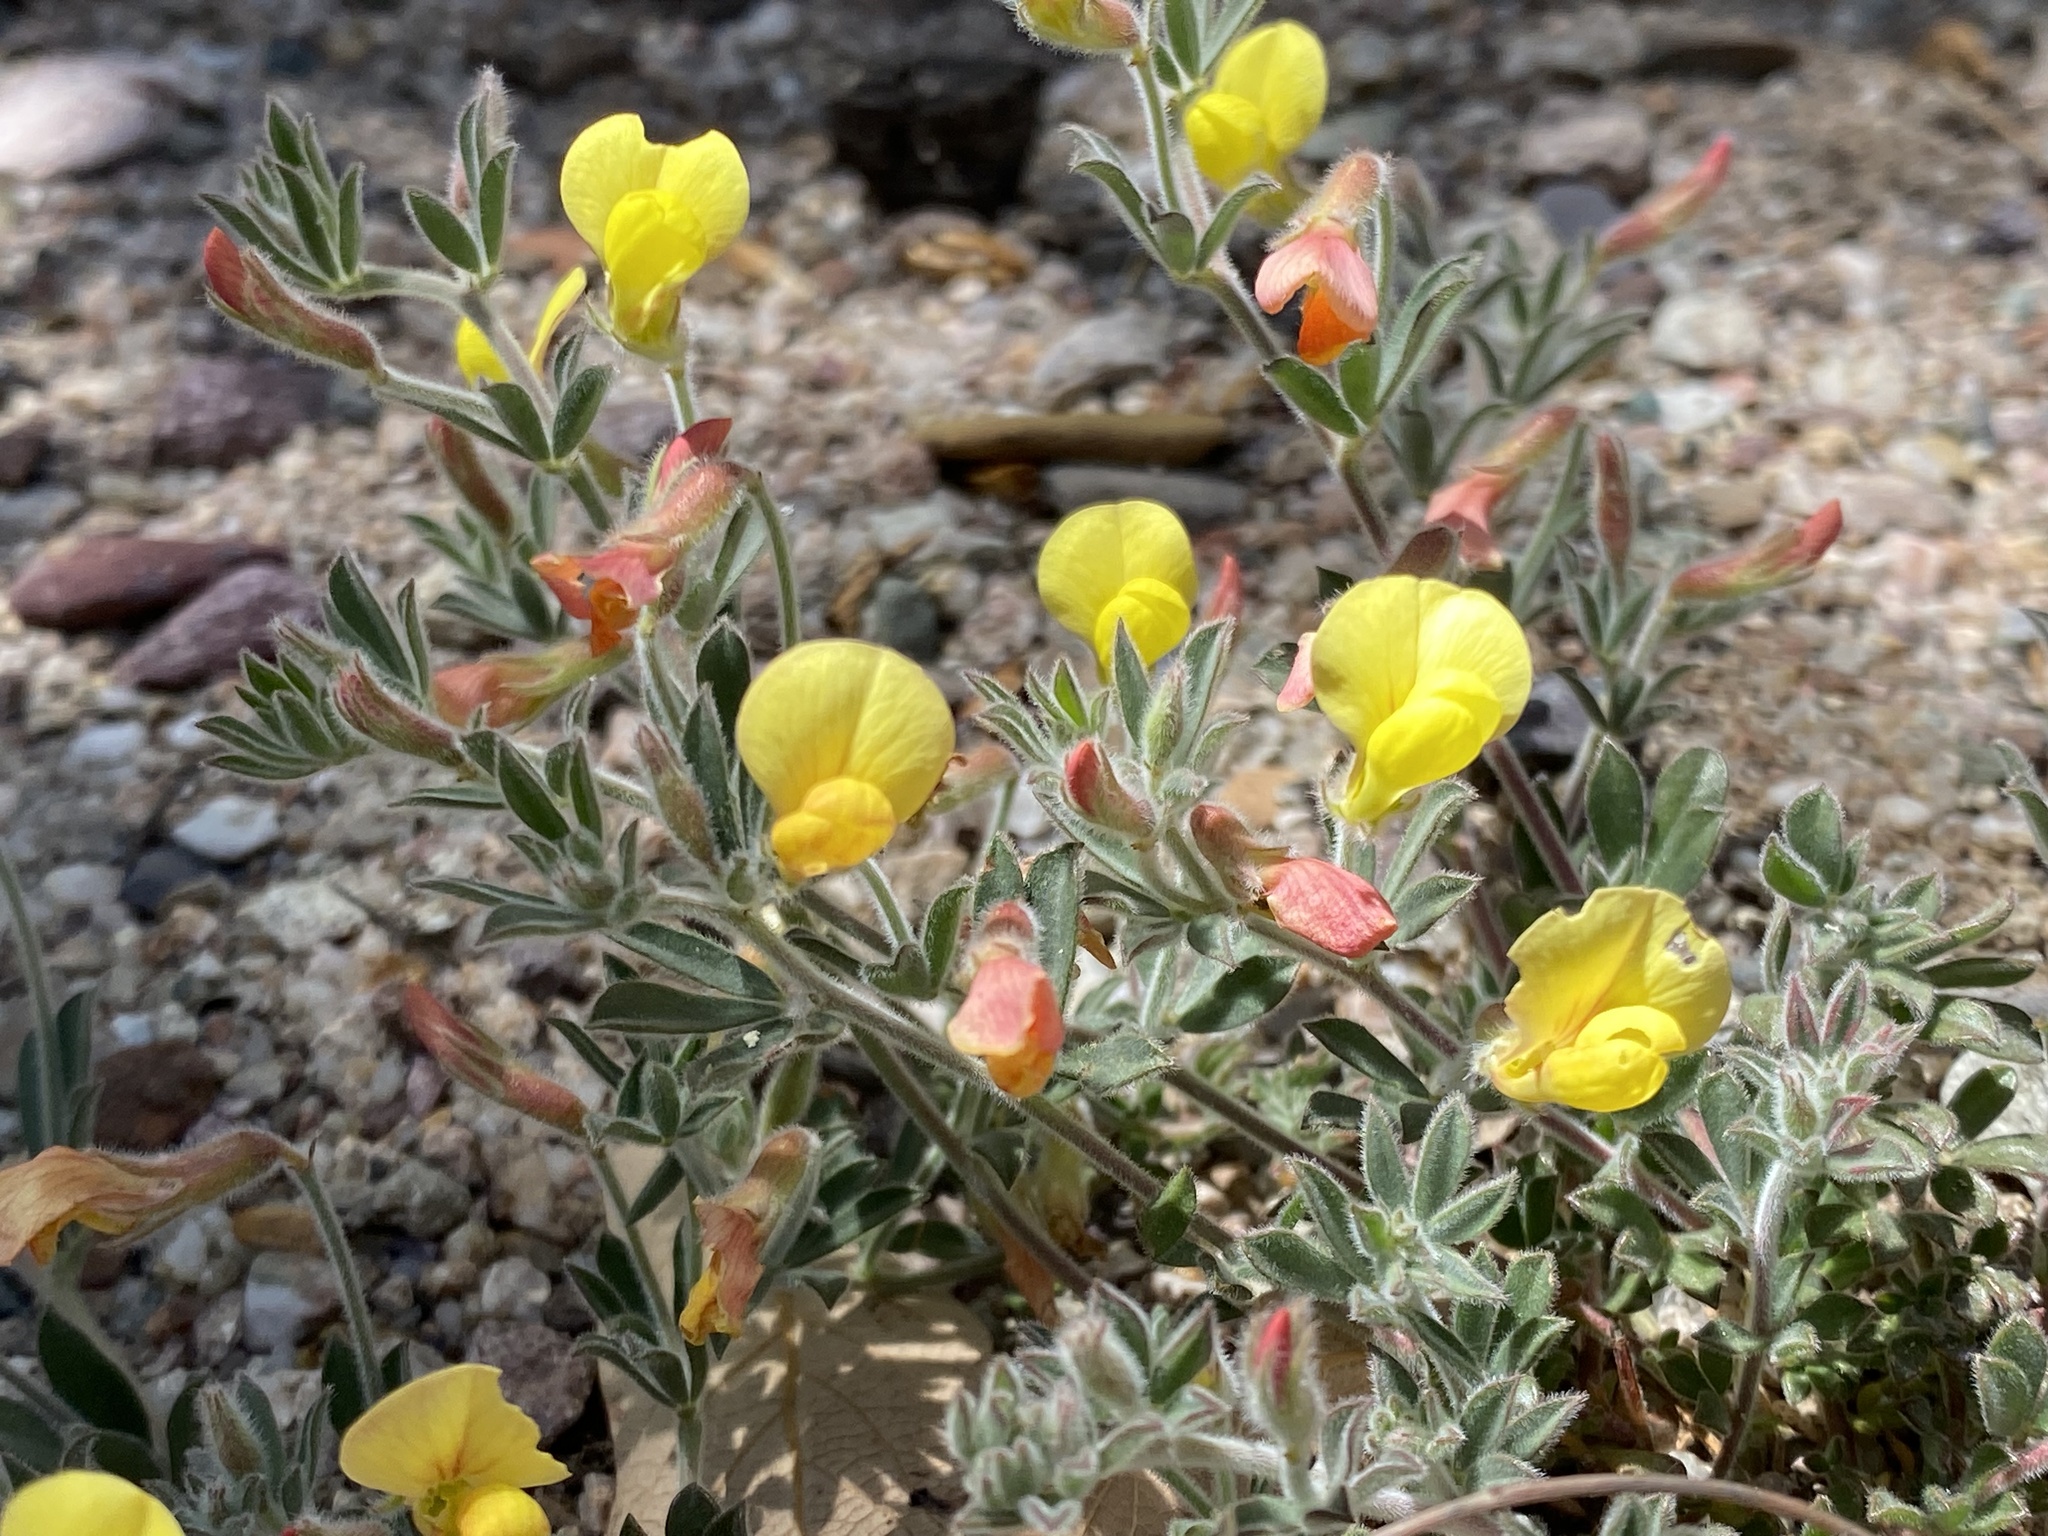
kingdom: Plantae
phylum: Tracheophyta
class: Magnoliopsida
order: Fabales
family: Fabaceae
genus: Acmispon
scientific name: Acmispon neomexicanus
